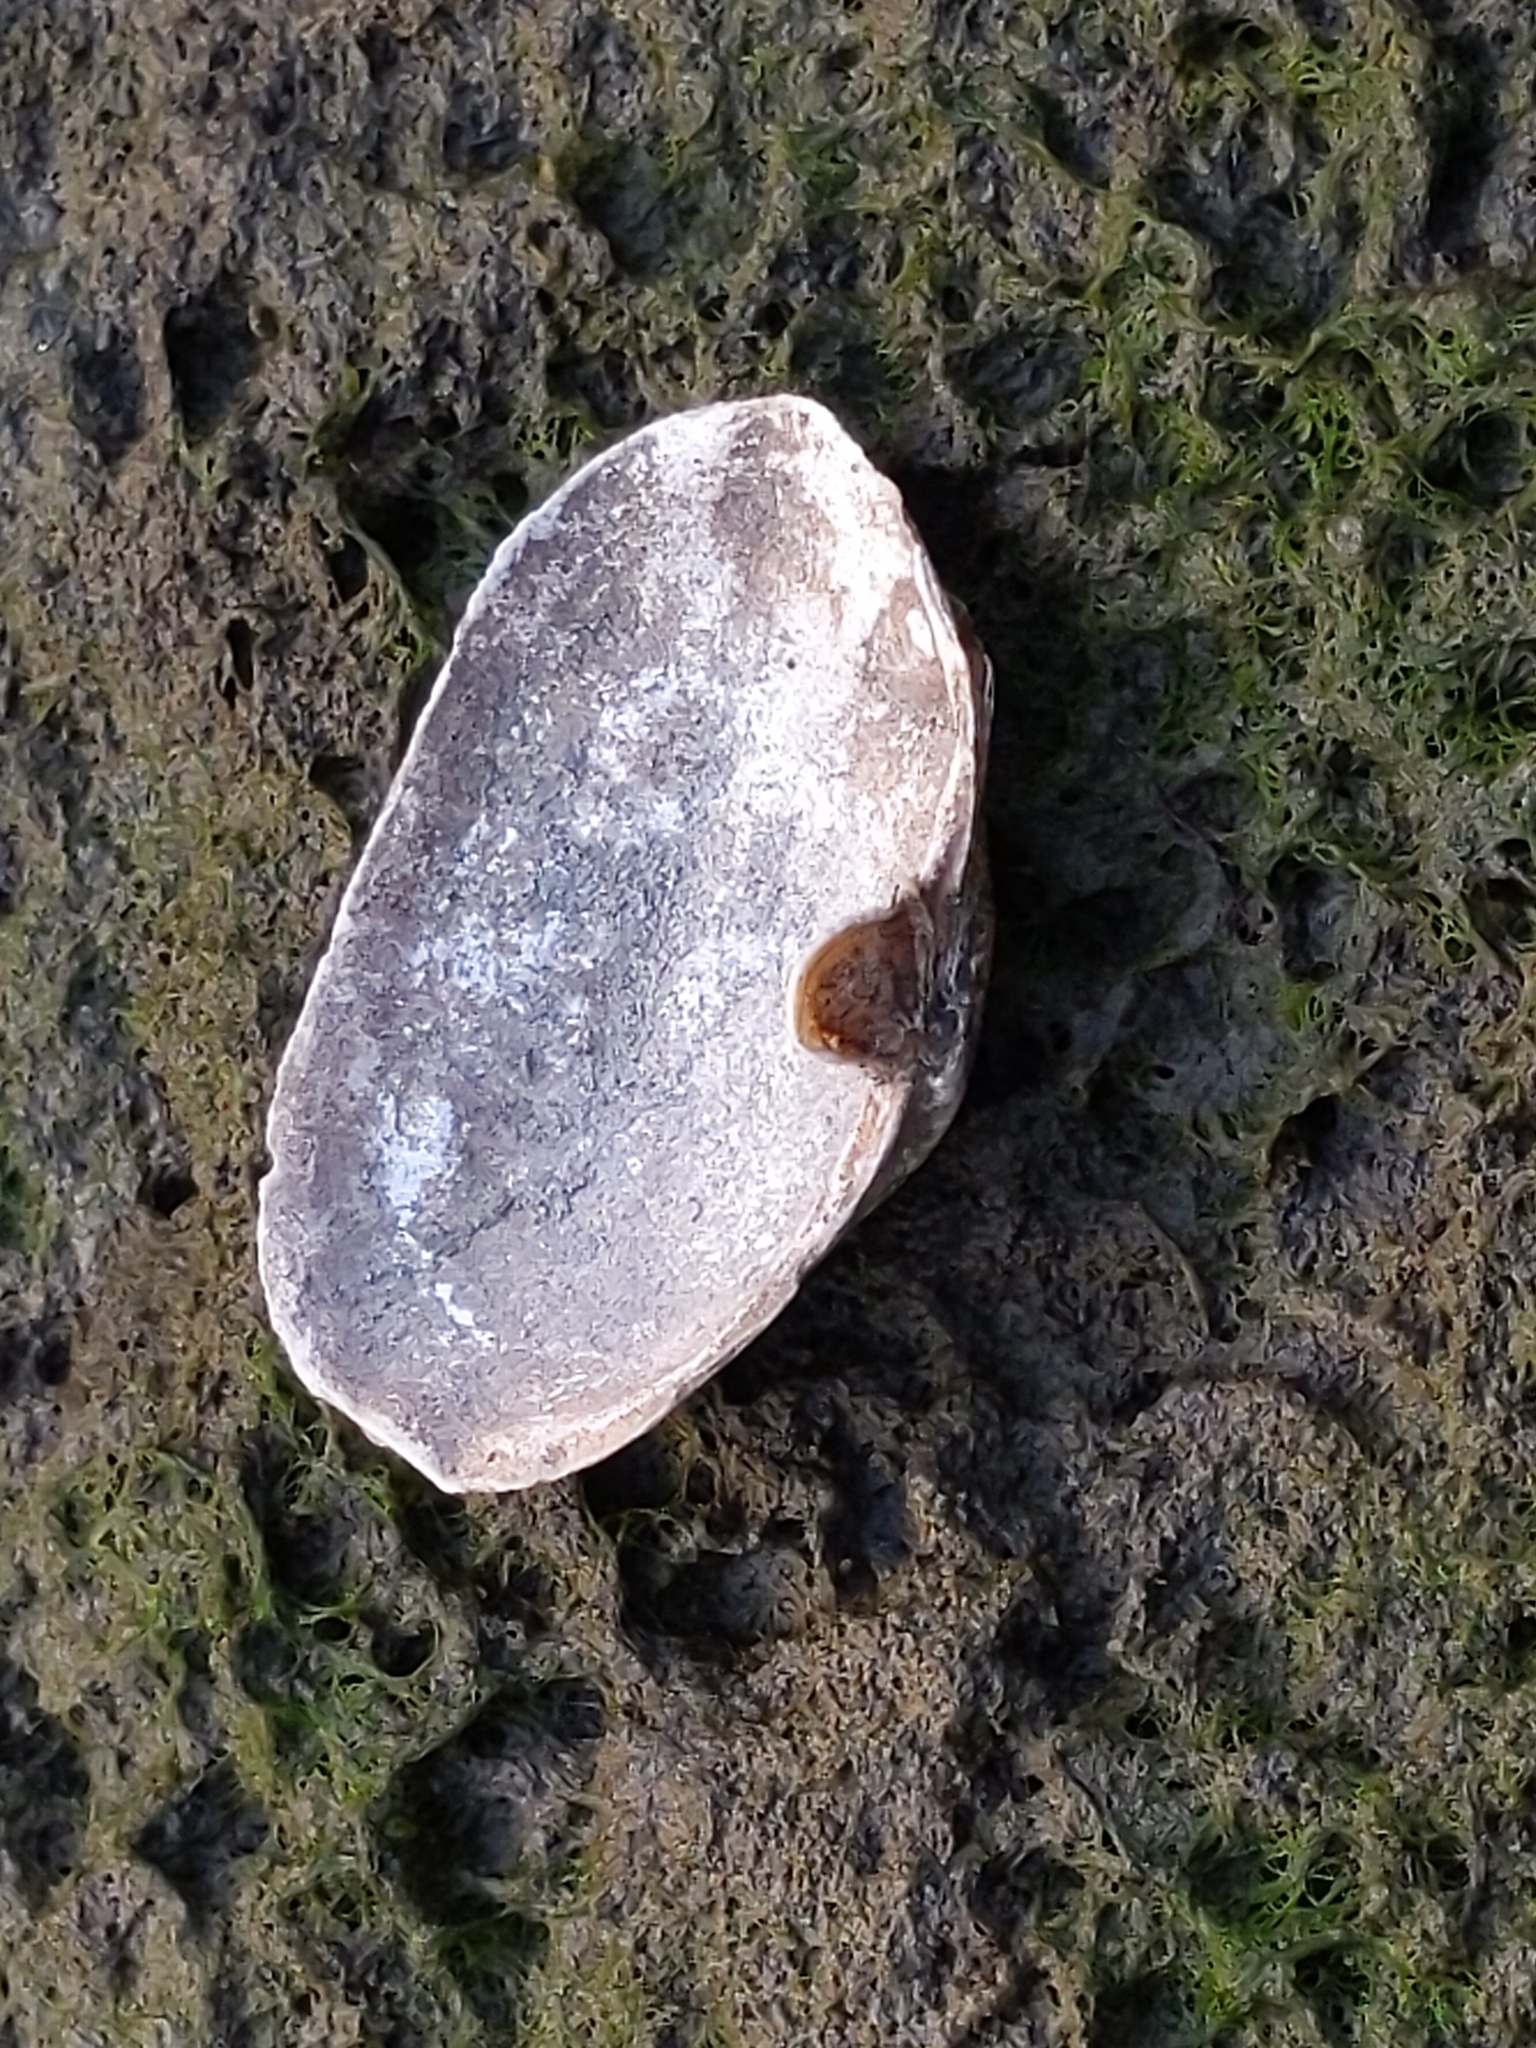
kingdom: Animalia
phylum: Mollusca
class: Bivalvia
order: Myida
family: Myidae
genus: Mya
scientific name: Mya arenaria
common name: Soft-shelled clam
